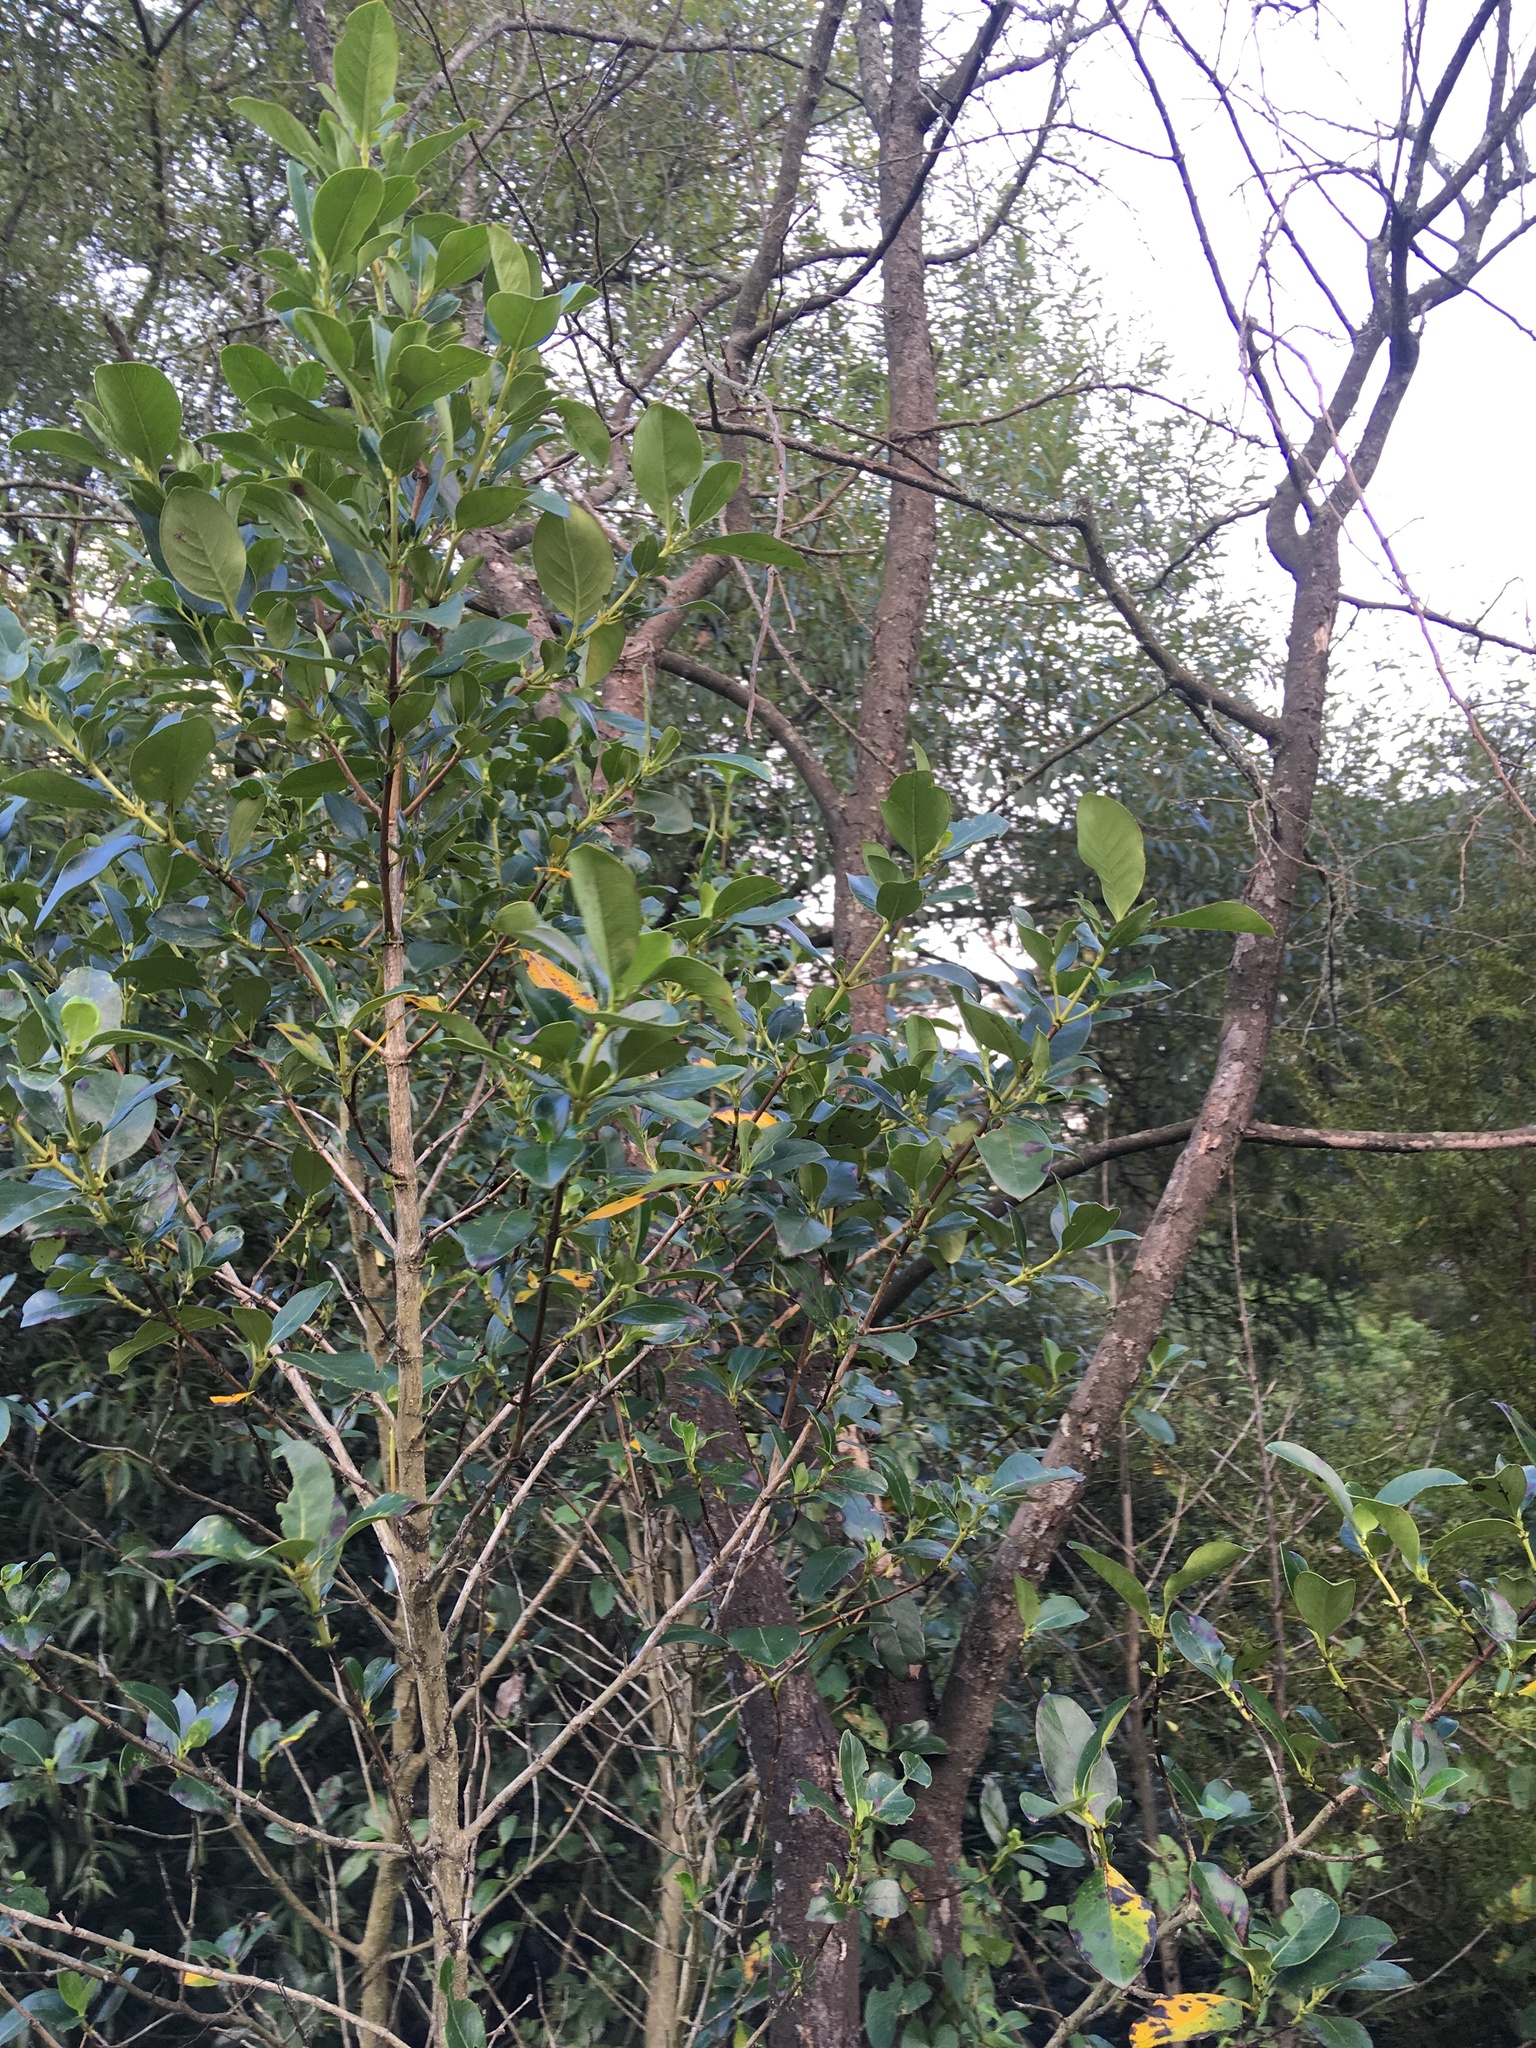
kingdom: Plantae
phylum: Tracheophyta
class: Magnoliopsida
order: Gentianales
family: Rubiaceae
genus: Coprosma
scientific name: Coprosma robusta
